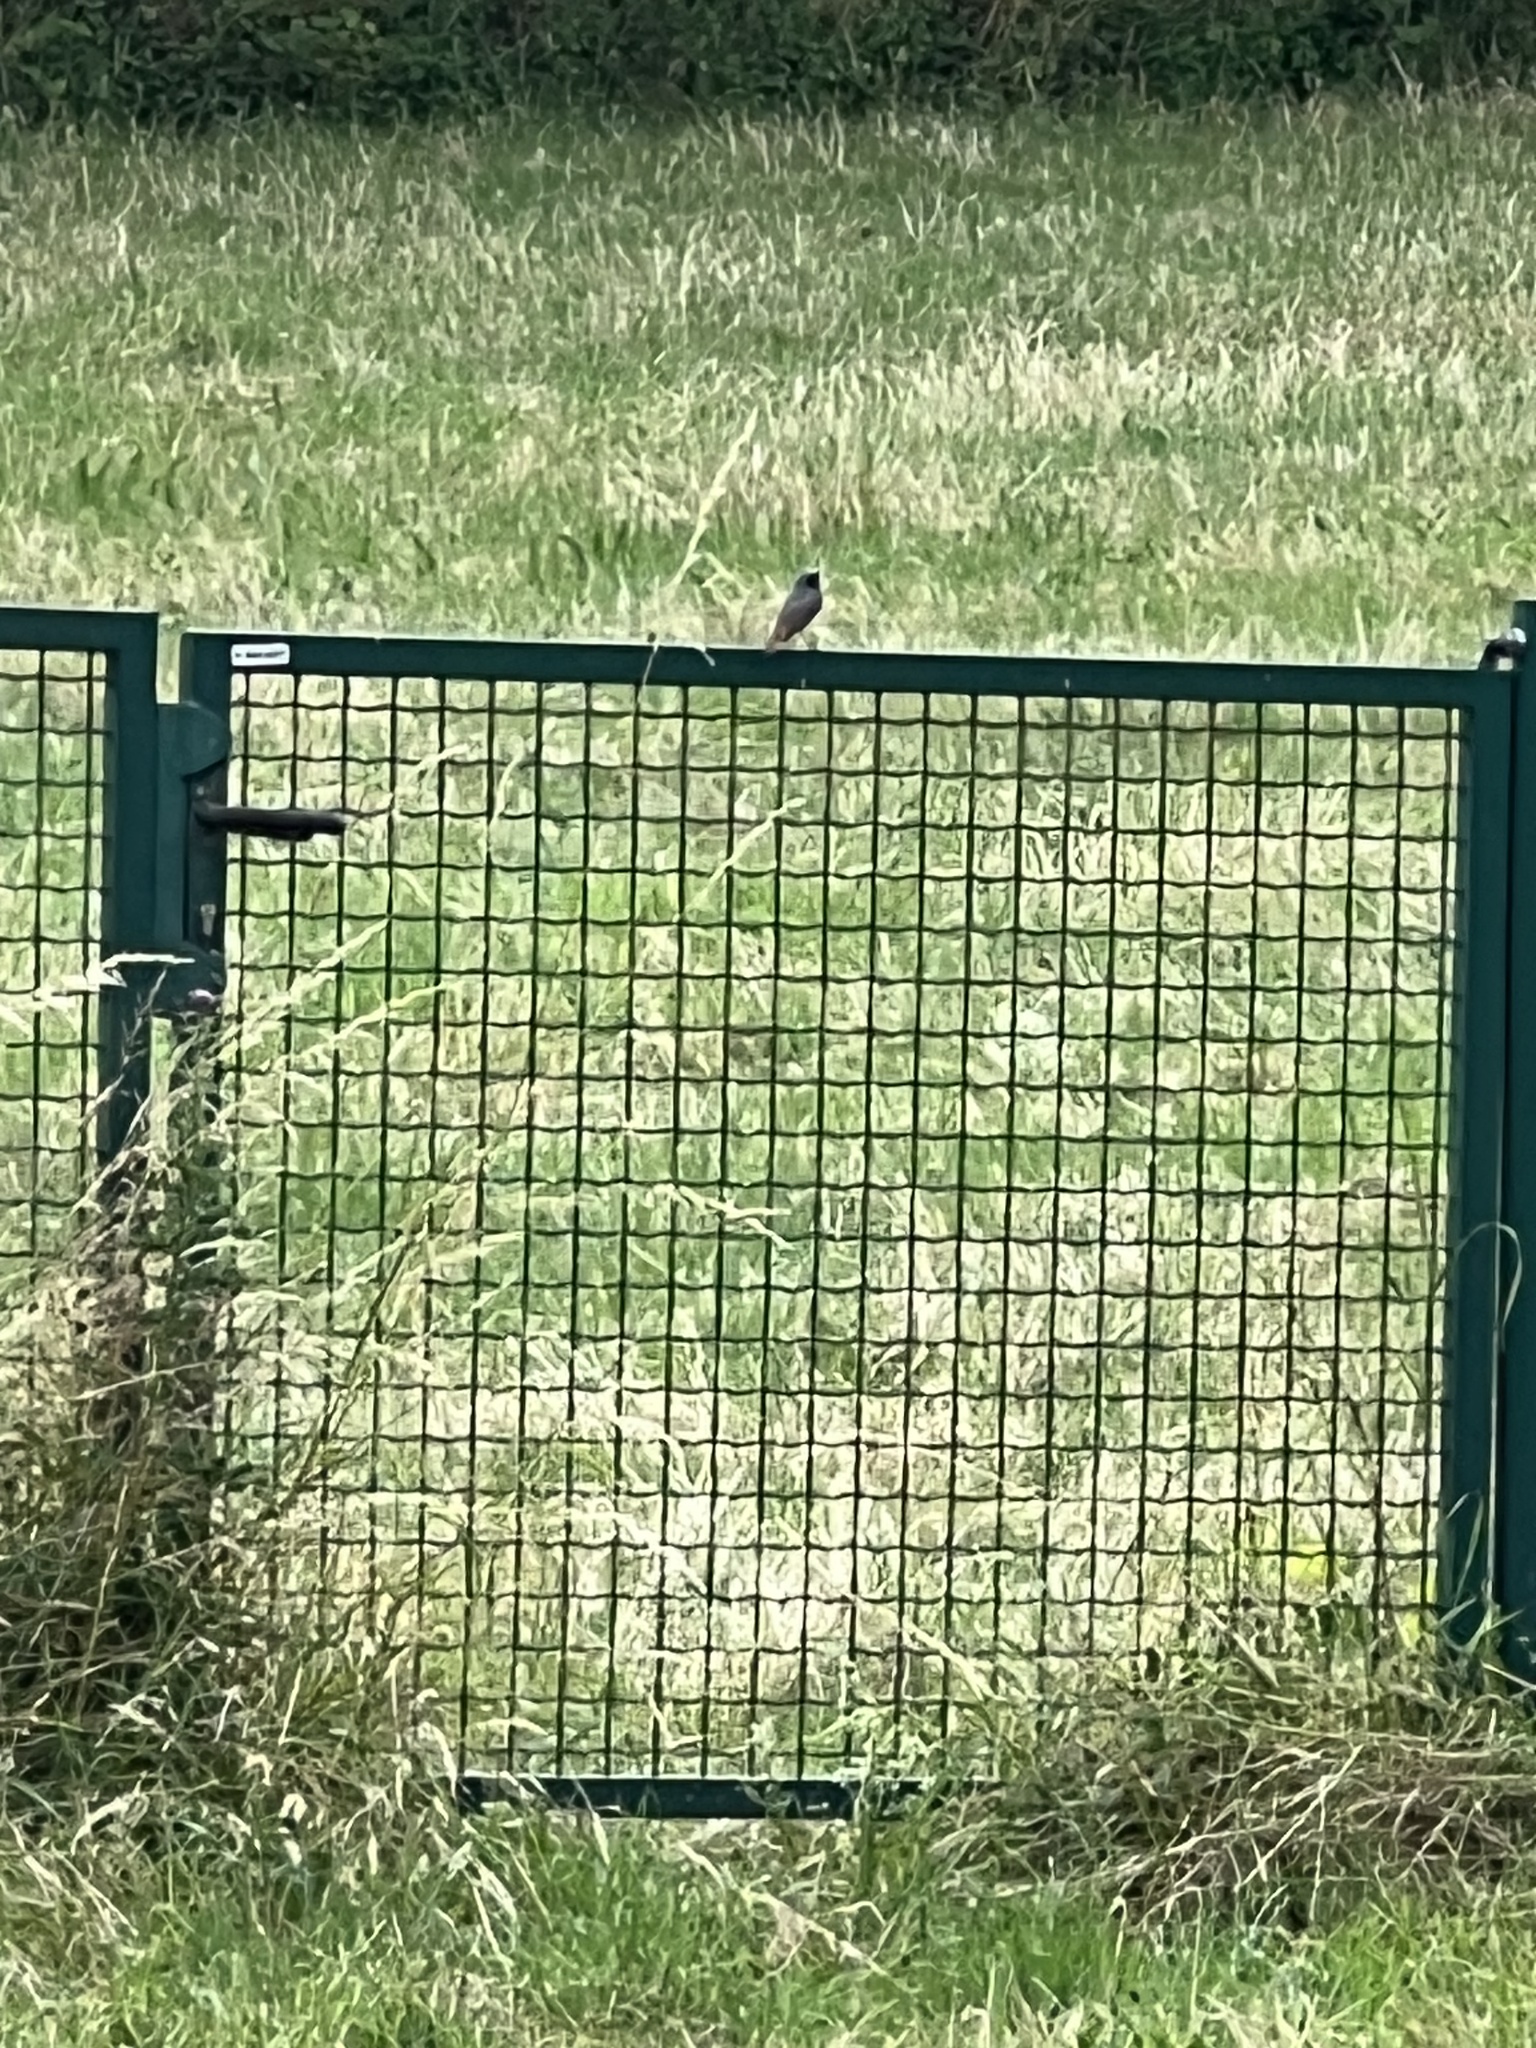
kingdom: Animalia
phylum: Chordata
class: Aves
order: Passeriformes
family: Muscicapidae
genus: Phoenicurus
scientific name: Phoenicurus ochruros
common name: Black redstart
